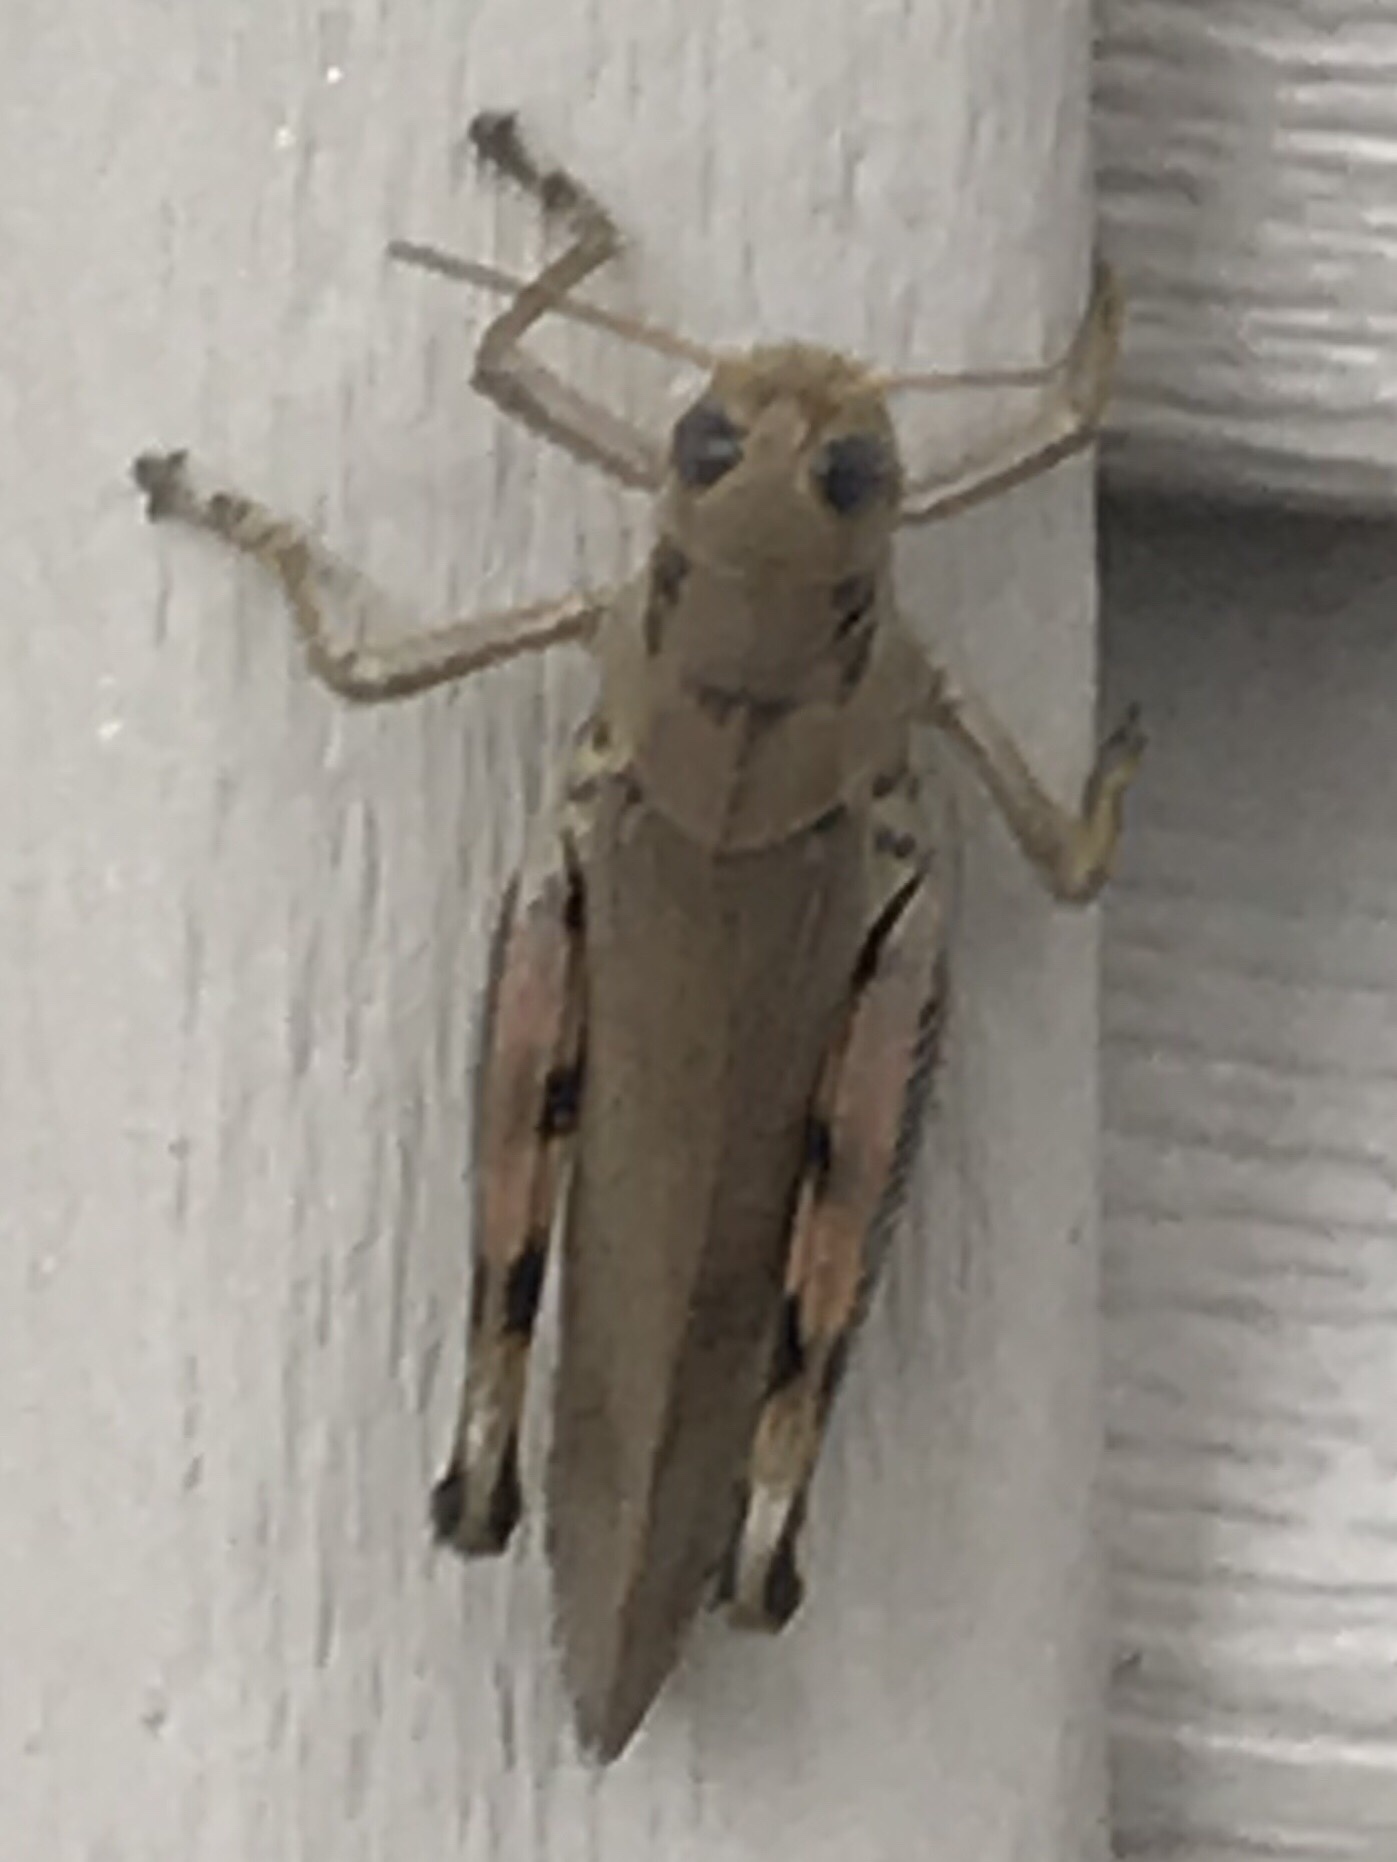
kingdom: Animalia
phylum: Arthropoda
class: Insecta
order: Orthoptera
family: Acrididae
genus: Melanoplus
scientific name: Melanoplus differentialis
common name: Differential grasshopper
